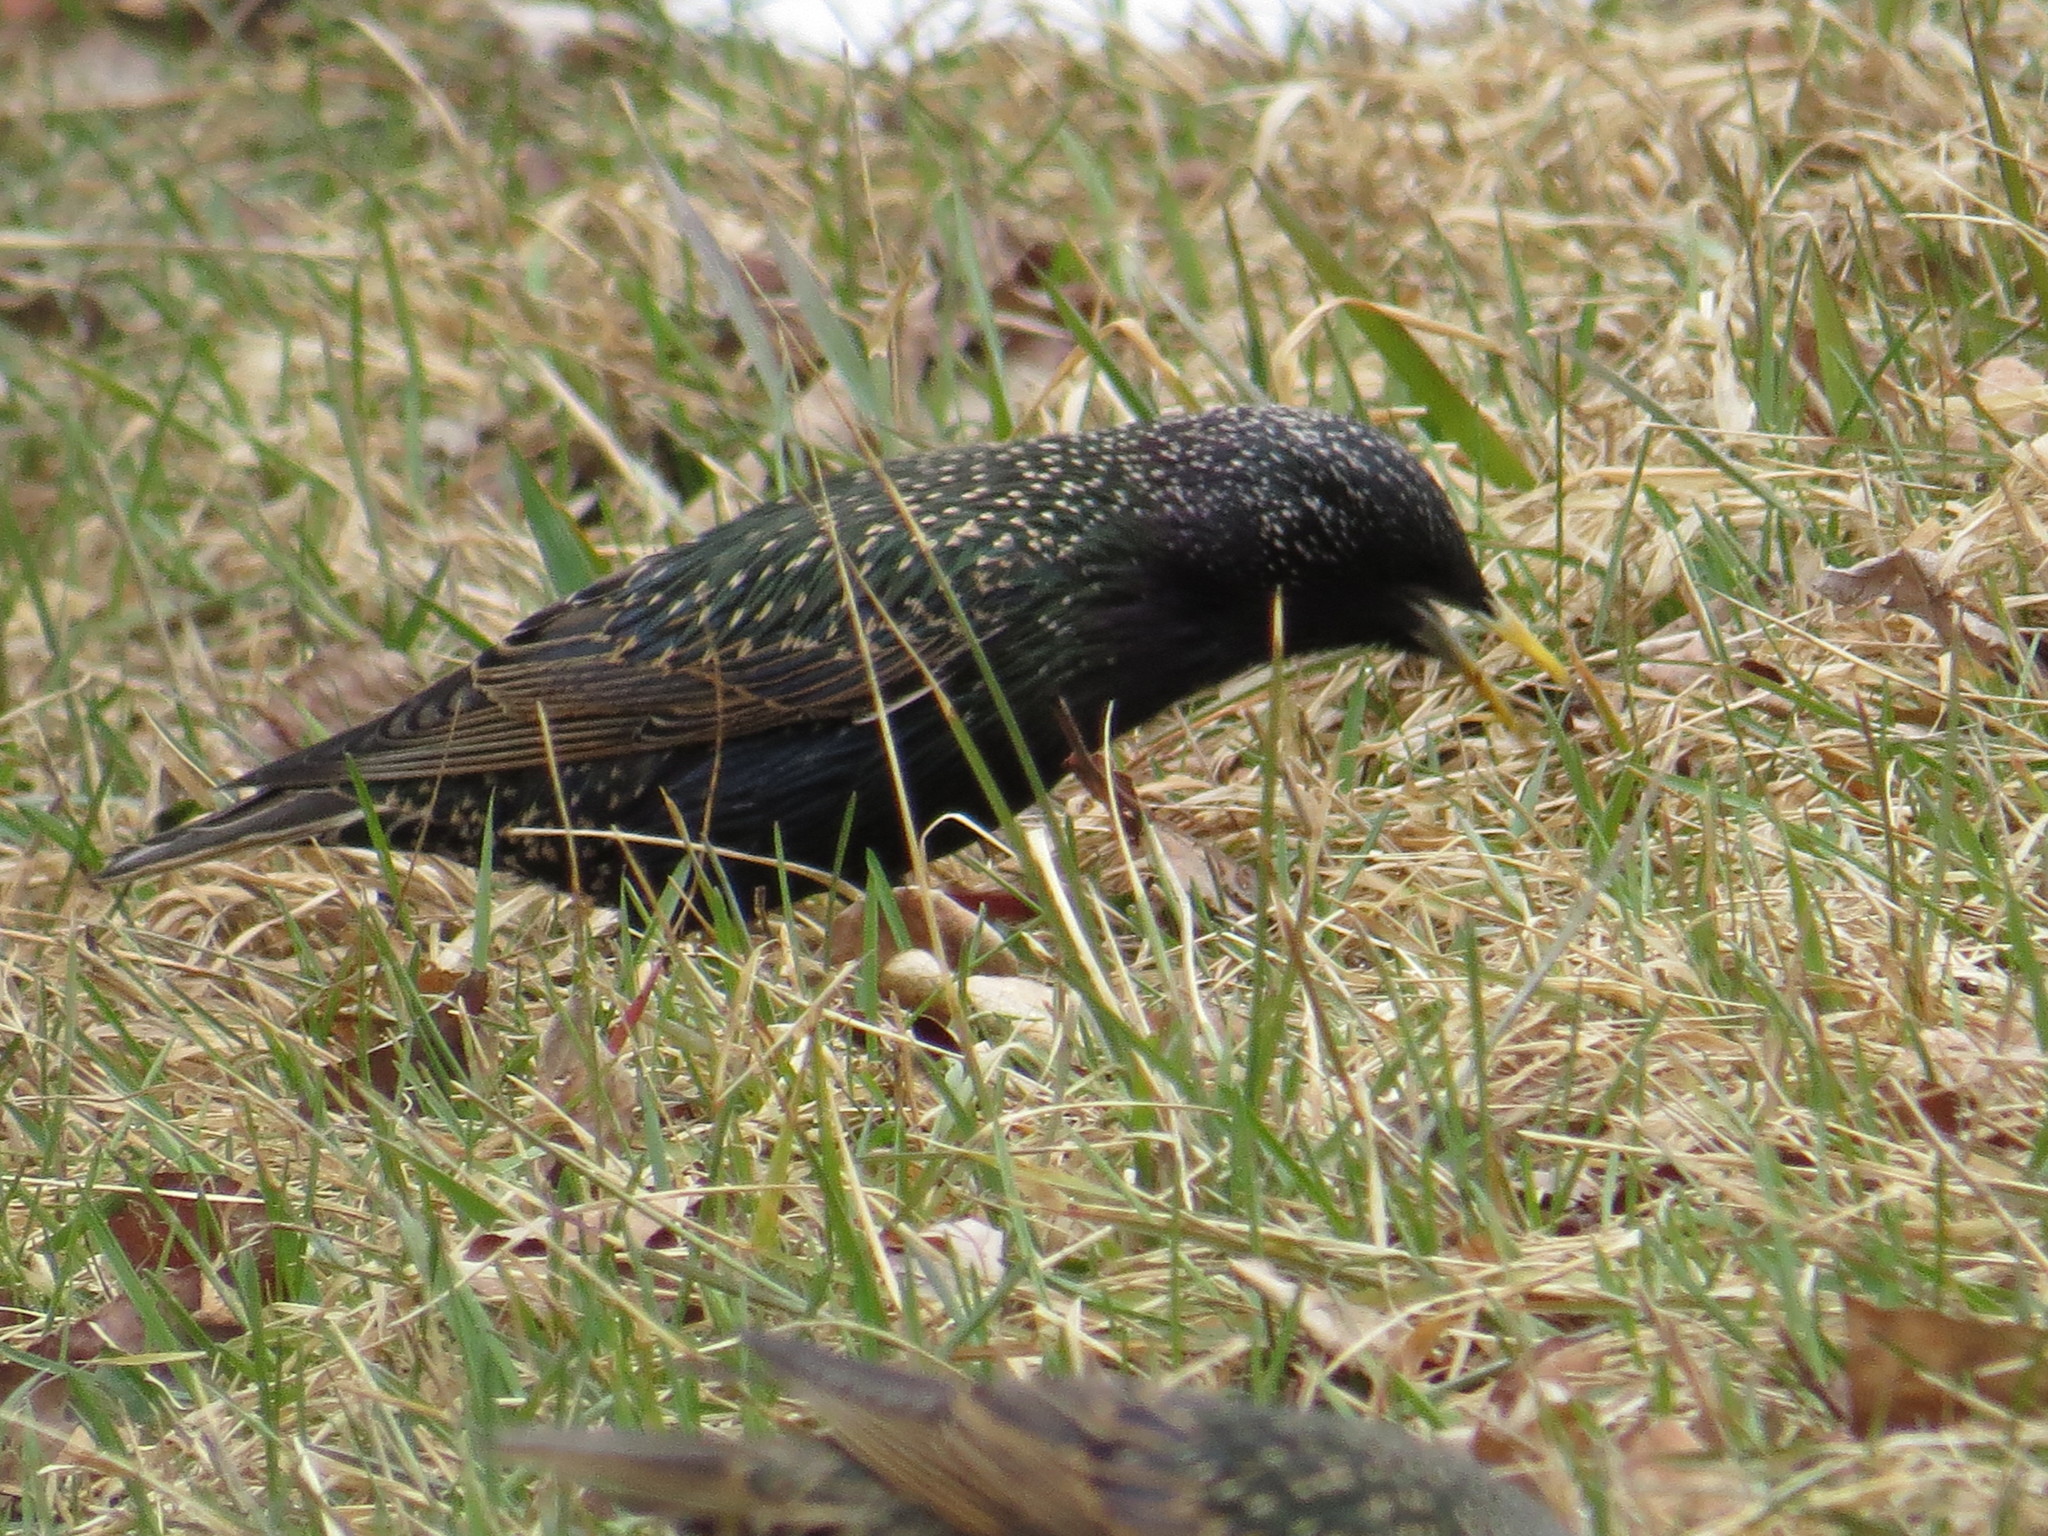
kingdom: Animalia
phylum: Chordata
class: Aves
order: Passeriformes
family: Sturnidae
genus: Sturnus
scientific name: Sturnus vulgaris
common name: Common starling
